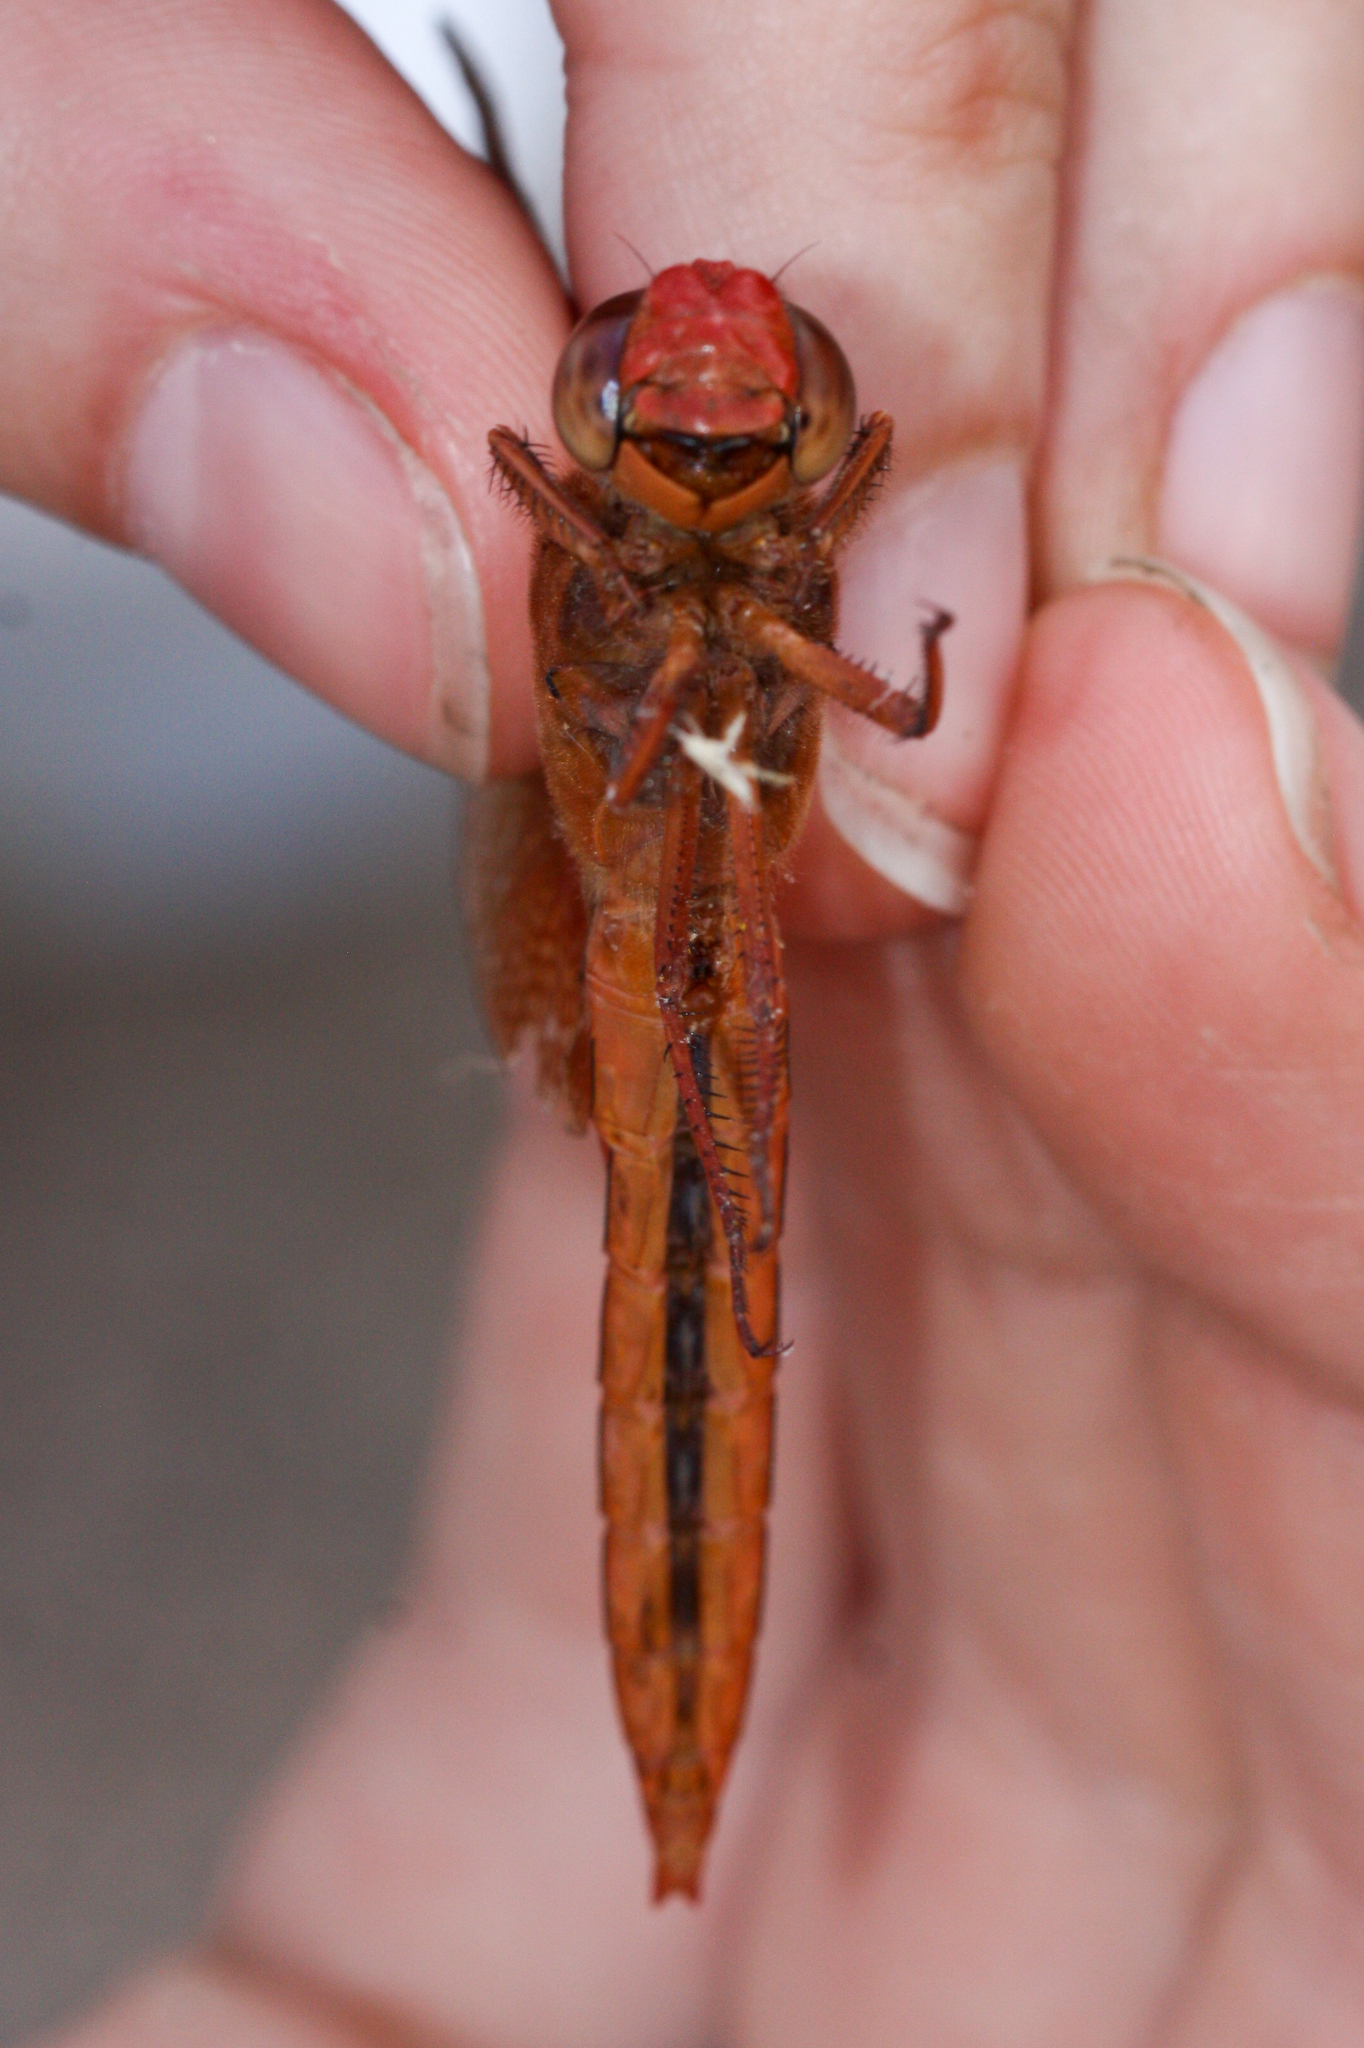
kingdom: Animalia
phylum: Arthropoda
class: Insecta
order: Odonata
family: Libellulidae
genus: Libellula
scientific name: Libellula saturata
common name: Flame skimmer
